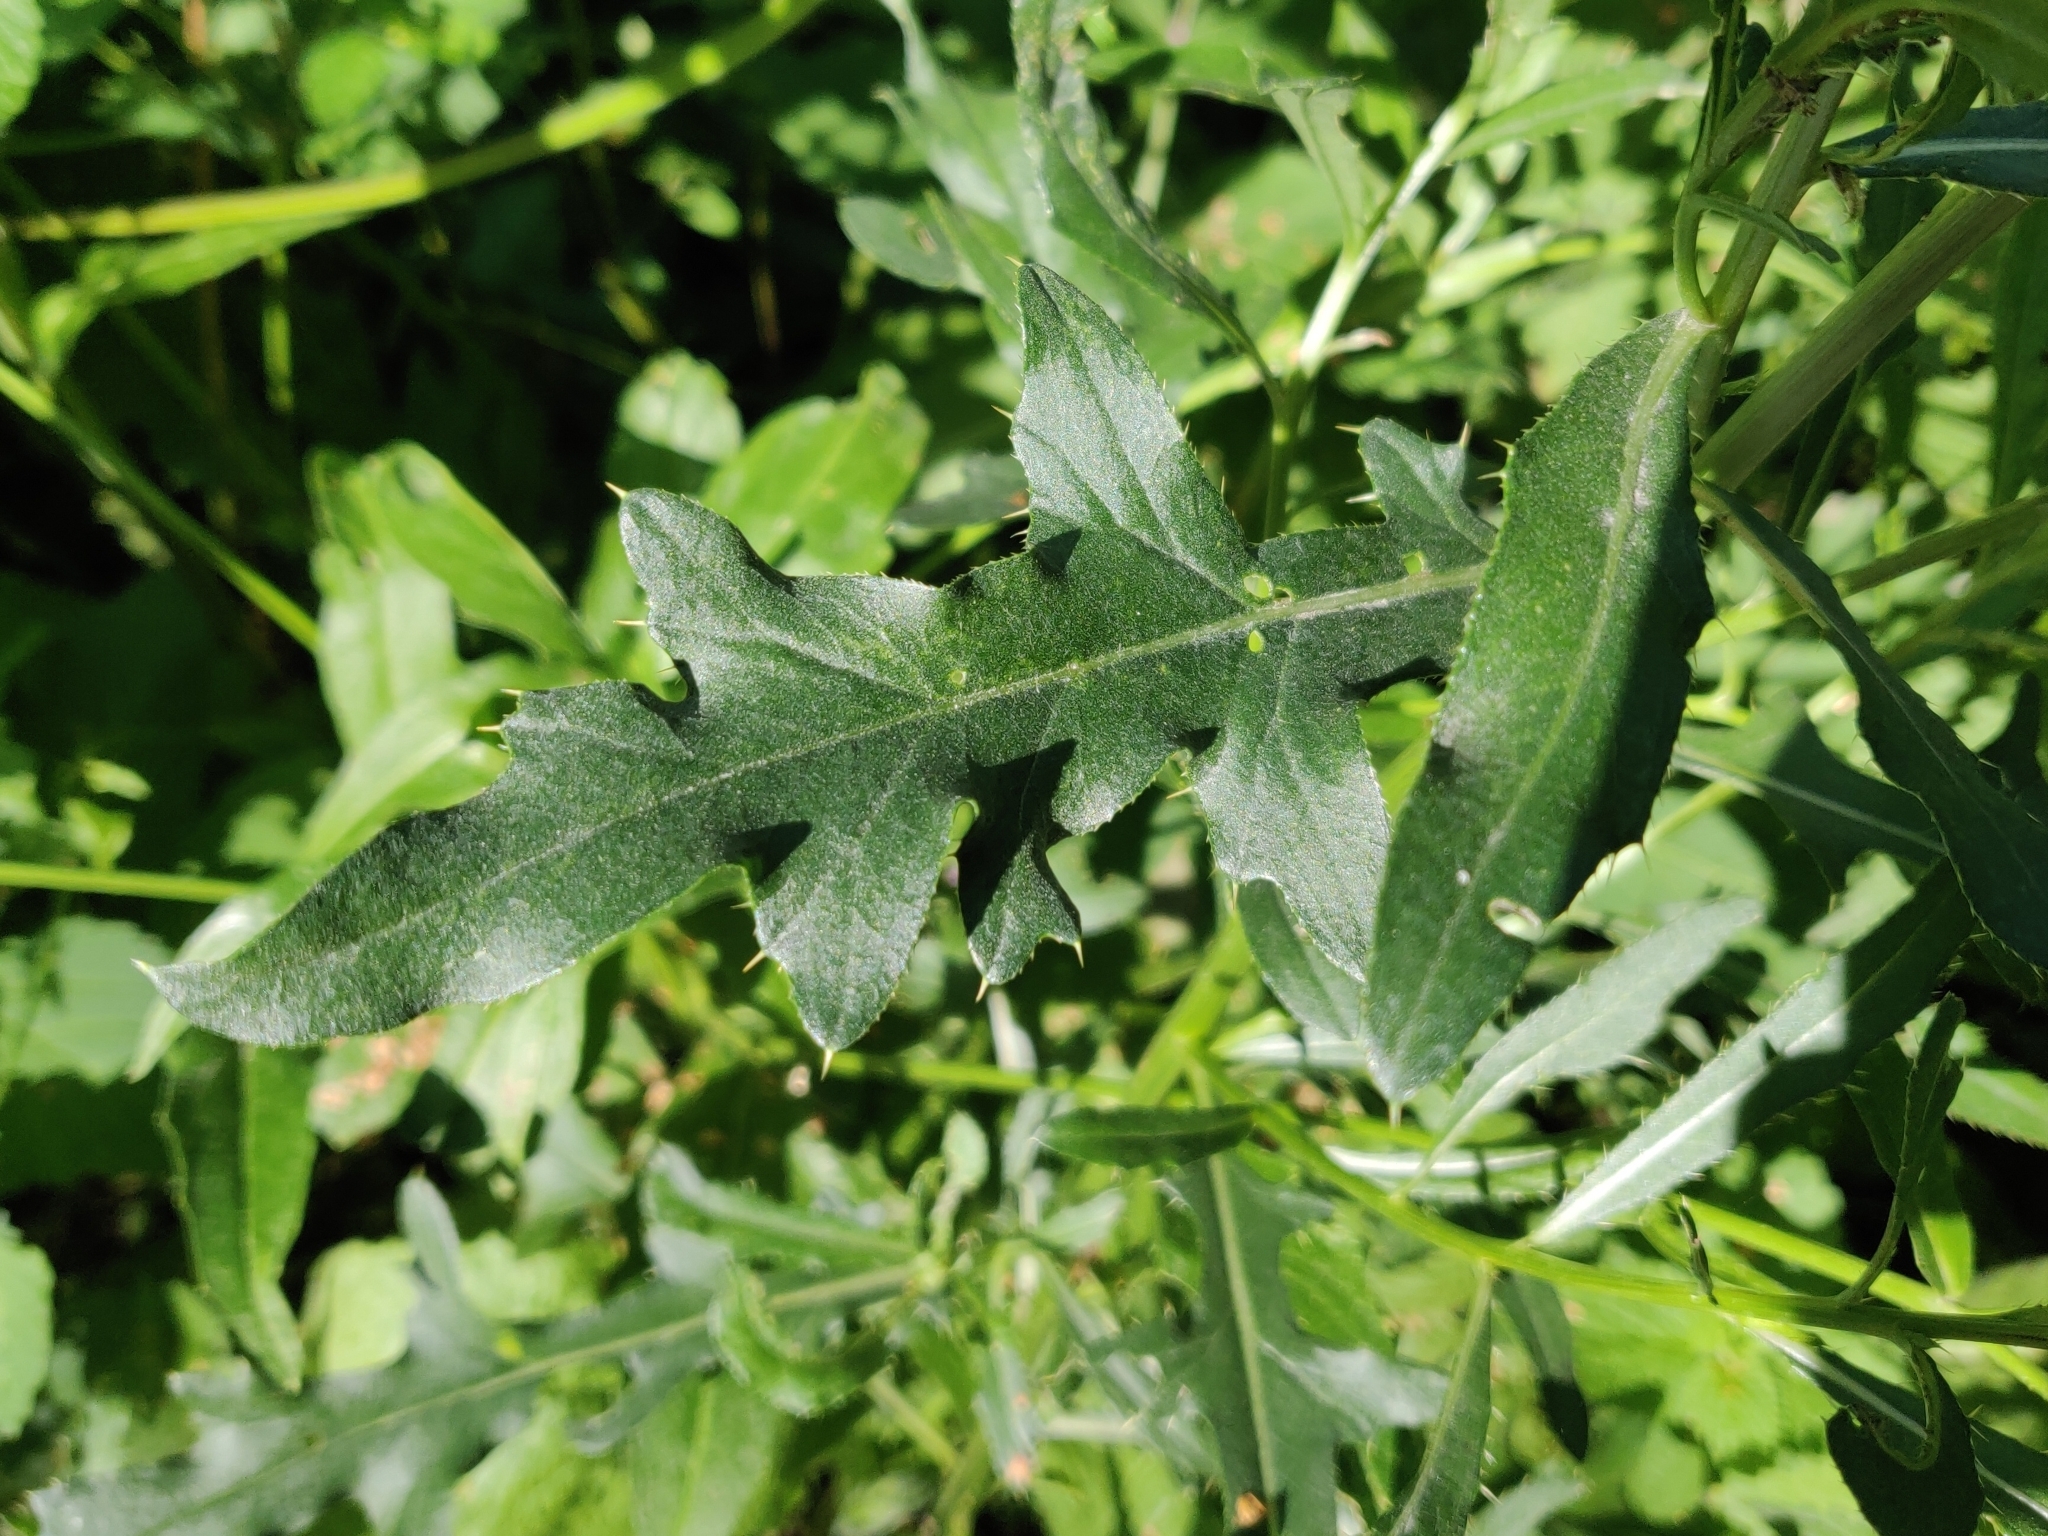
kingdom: Plantae
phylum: Tracheophyta
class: Magnoliopsida
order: Asterales
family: Asteraceae
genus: Cirsium
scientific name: Cirsium arvense
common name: Creeping thistle
